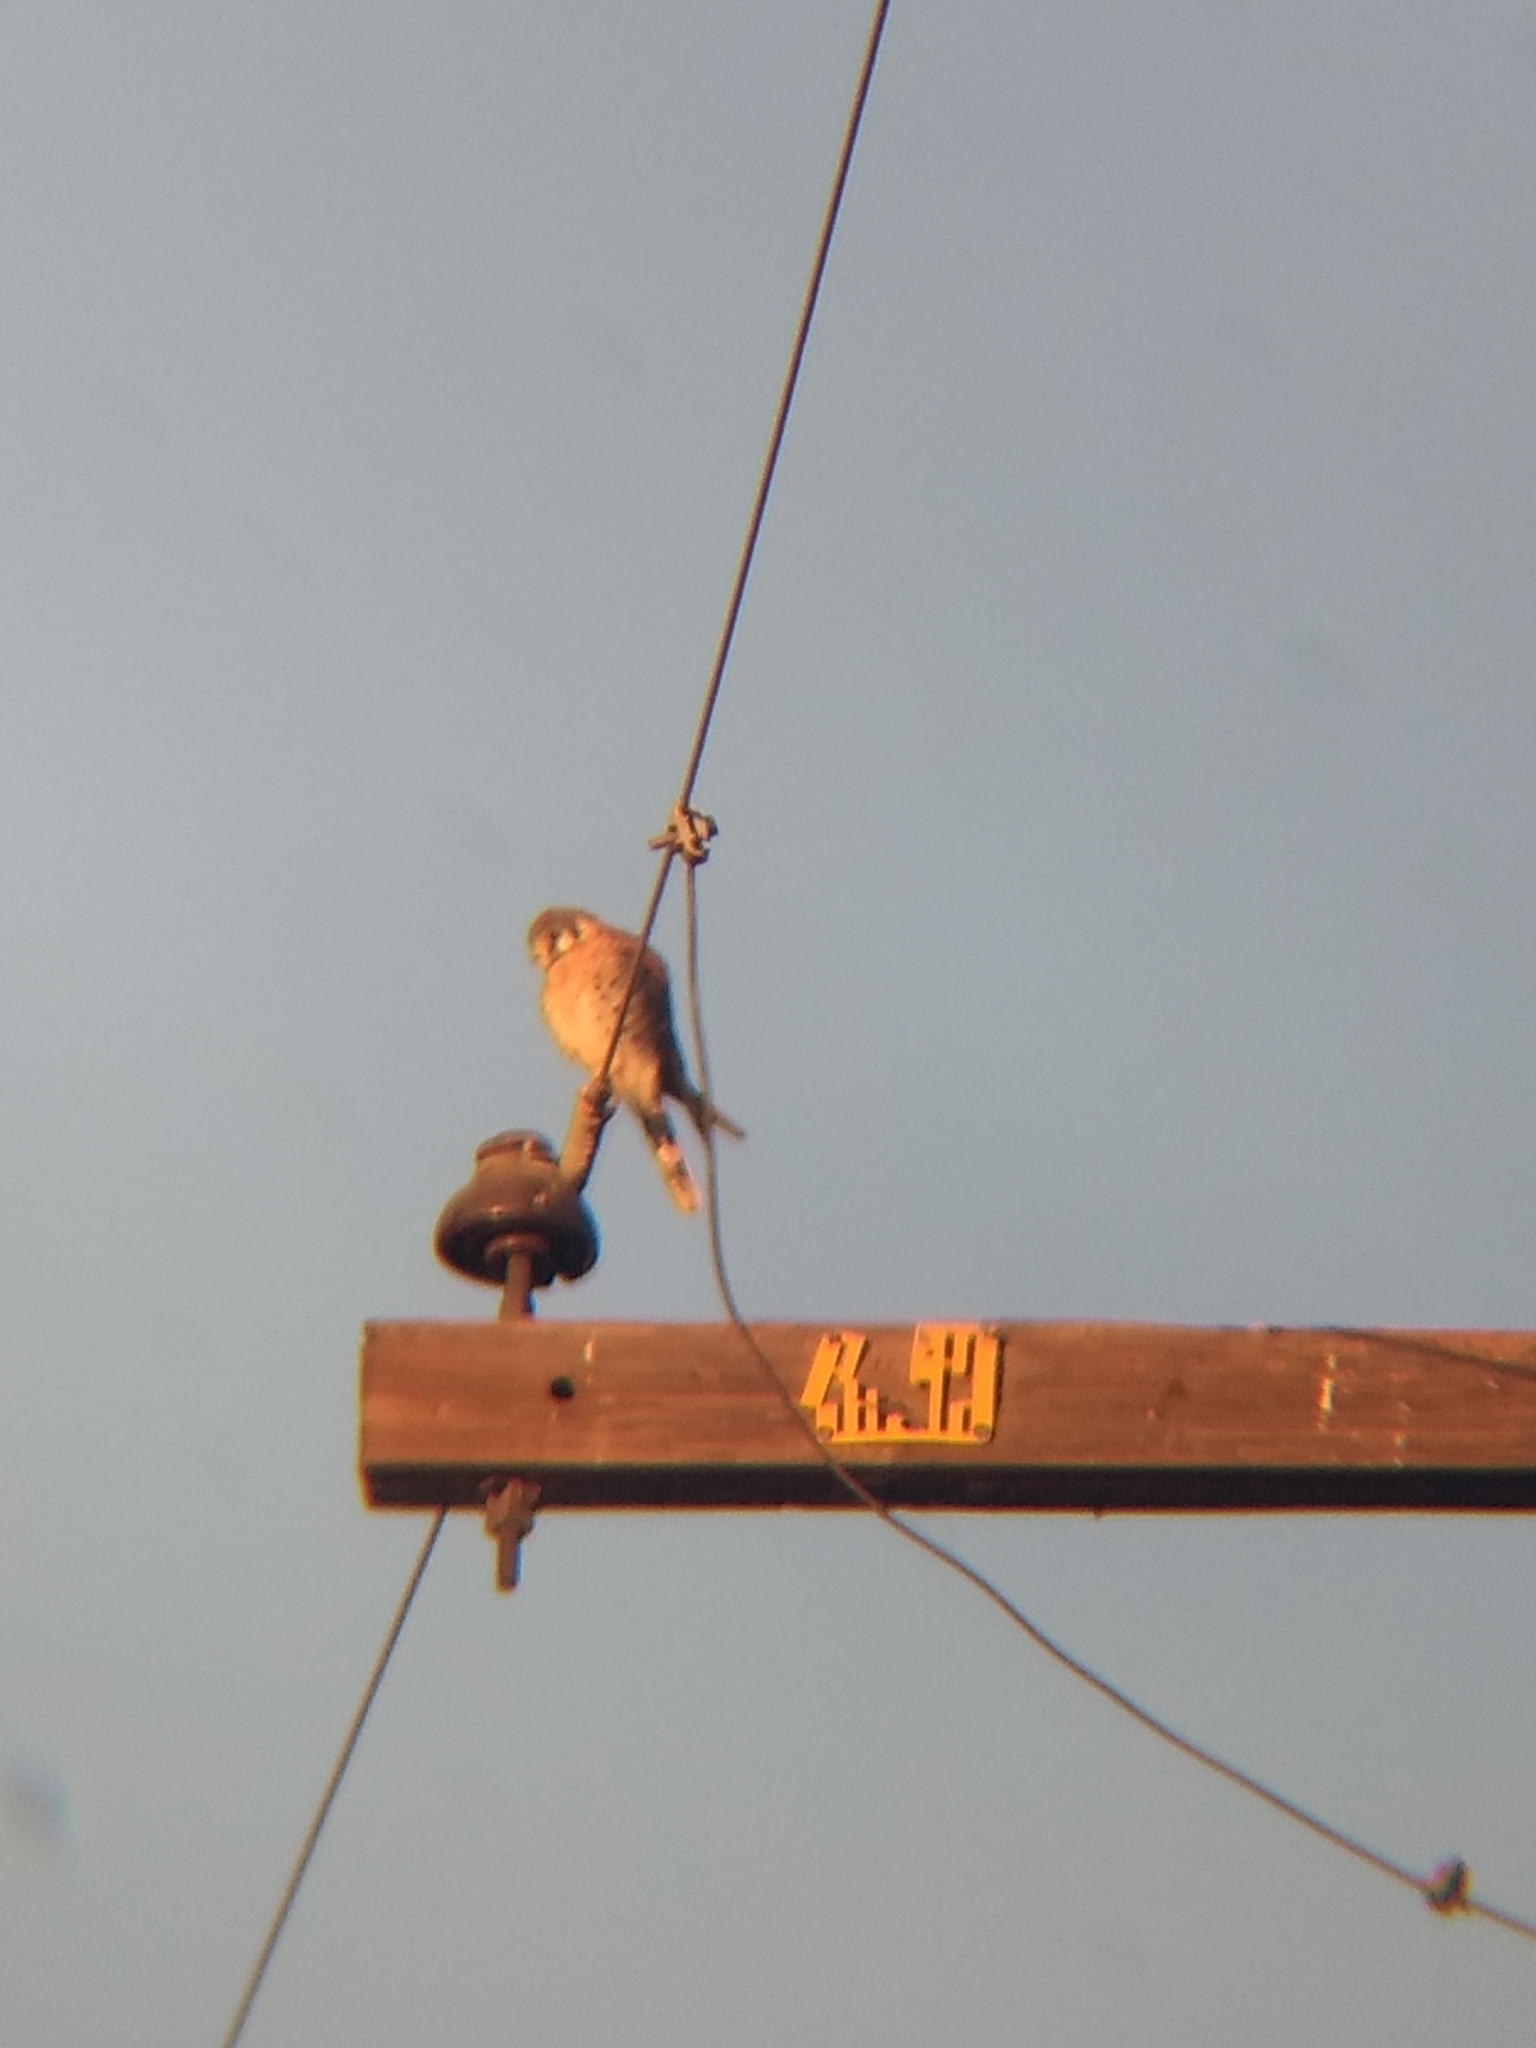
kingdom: Animalia
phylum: Chordata
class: Aves
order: Falconiformes
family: Falconidae
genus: Falco
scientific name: Falco sparverius
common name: American kestrel
